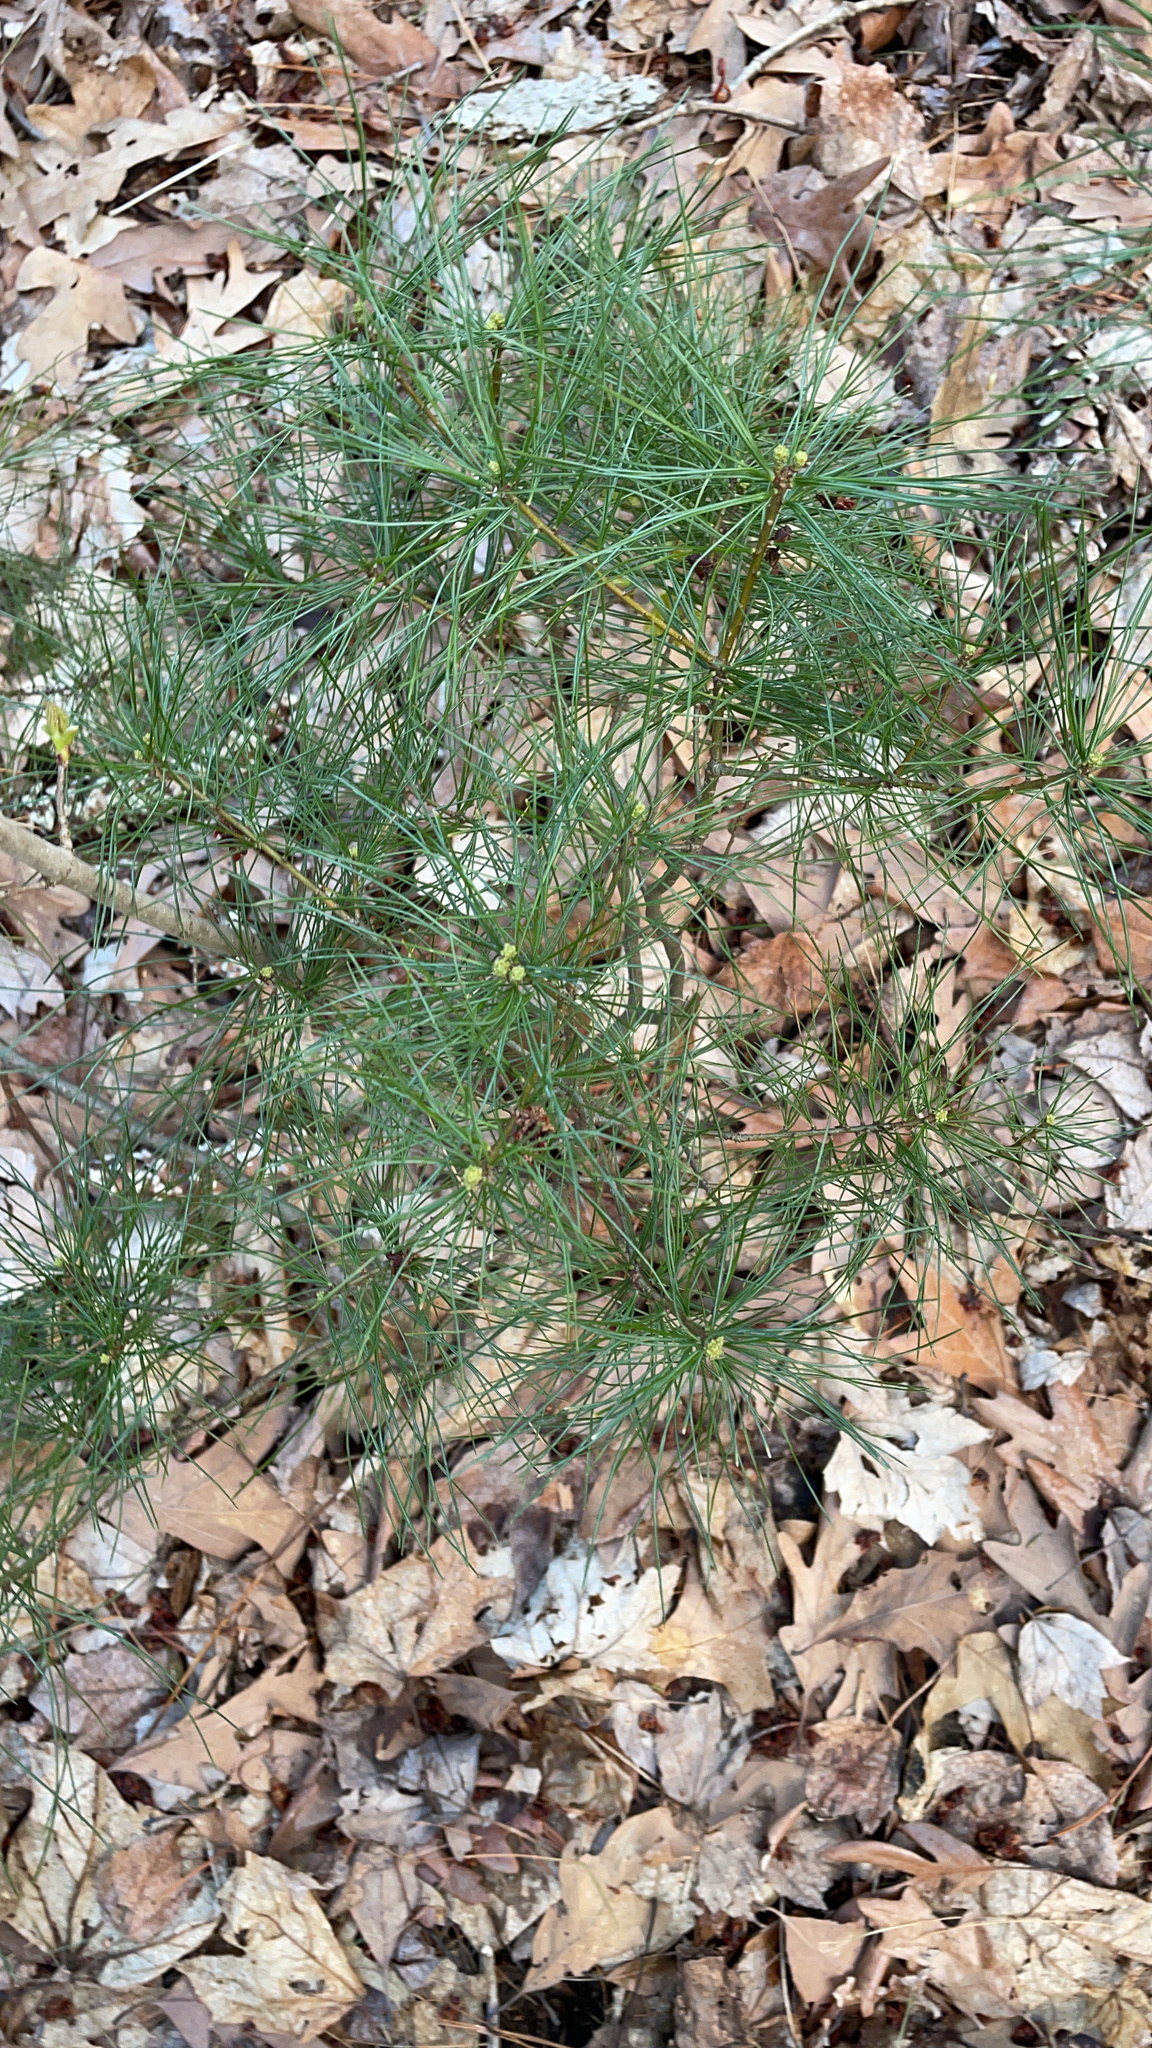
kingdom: Plantae
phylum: Tracheophyta
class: Pinopsida
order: Pinales
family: Pinaceae
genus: Pinus
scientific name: Pinus strobus
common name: Weymouth pine
